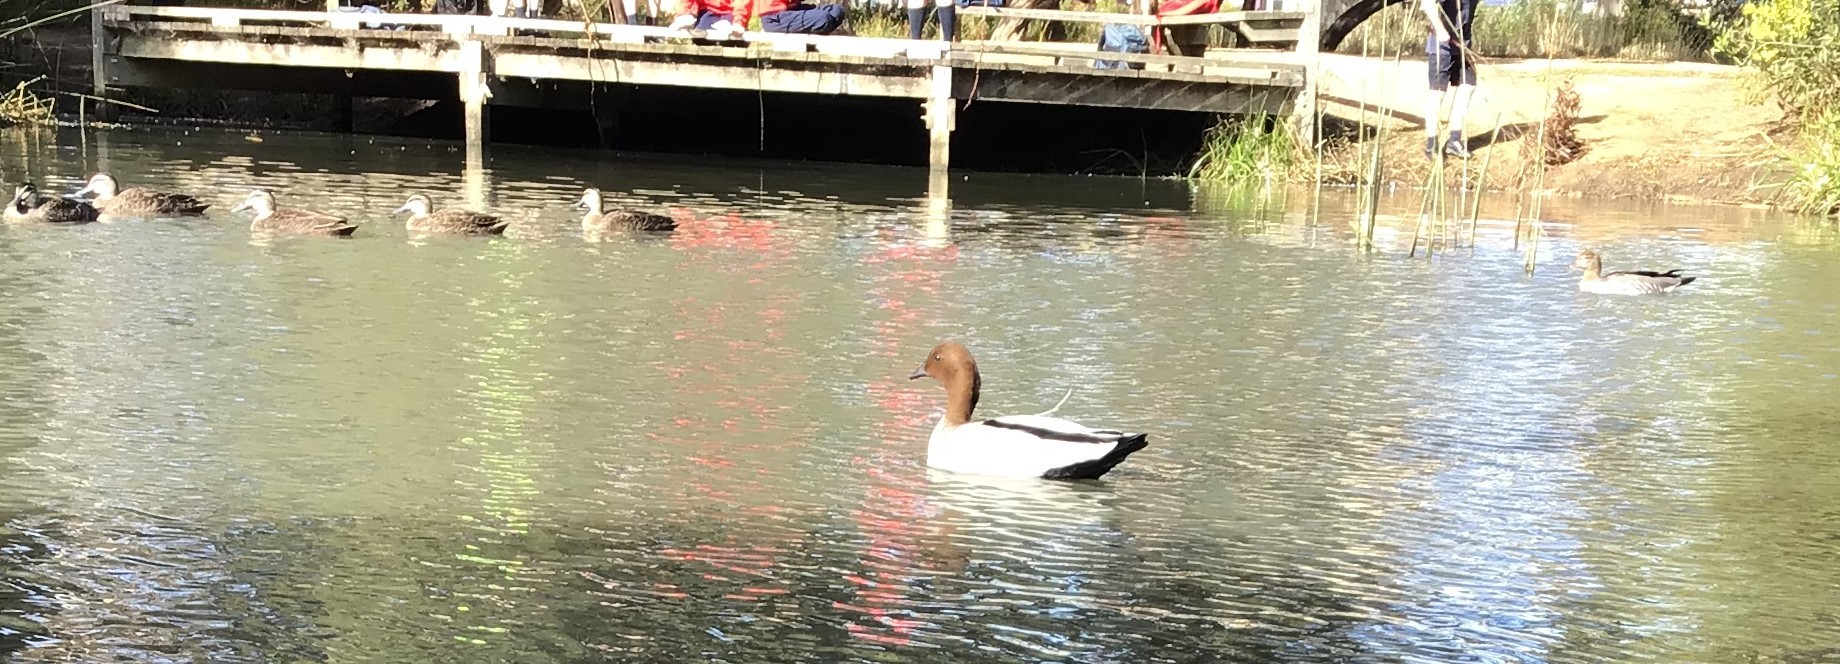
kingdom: Animalia
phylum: Chordata
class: Aves
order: Anseriformes
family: Anatidae
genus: Chenonetta
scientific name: Chenonetta jubata
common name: Maned duck
